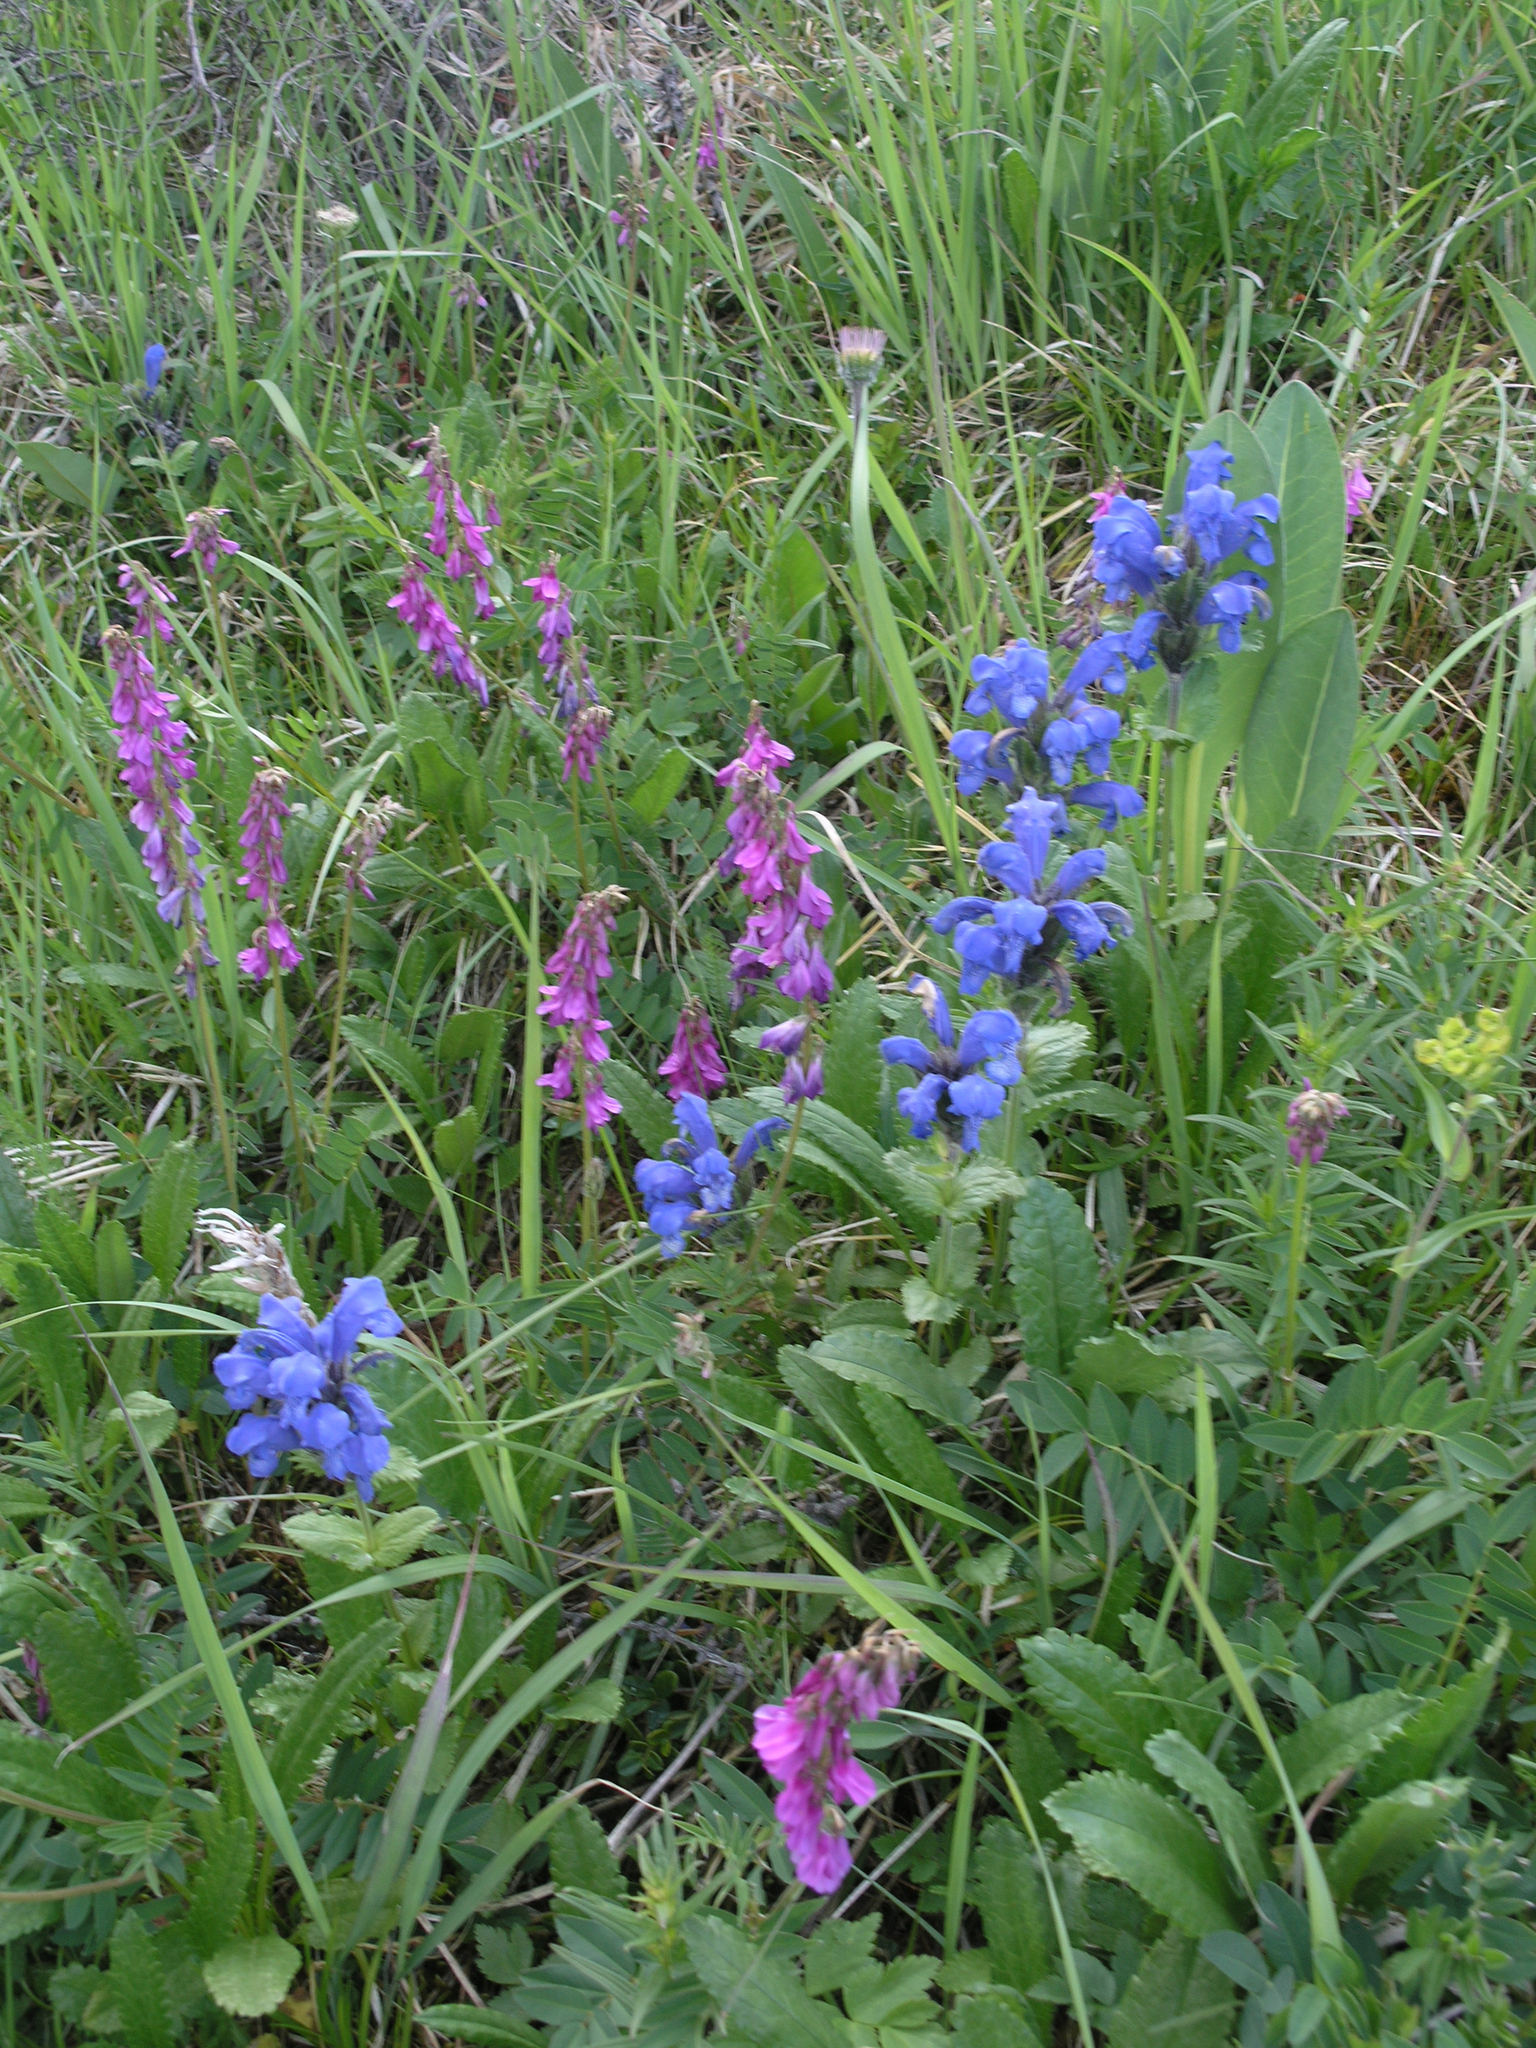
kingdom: Plantae
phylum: Tracheophyta
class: Magnoliopsida
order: Lamiales
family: Lamiaceae
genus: Dracocephalum
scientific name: Dracocephalum grandiflorum
